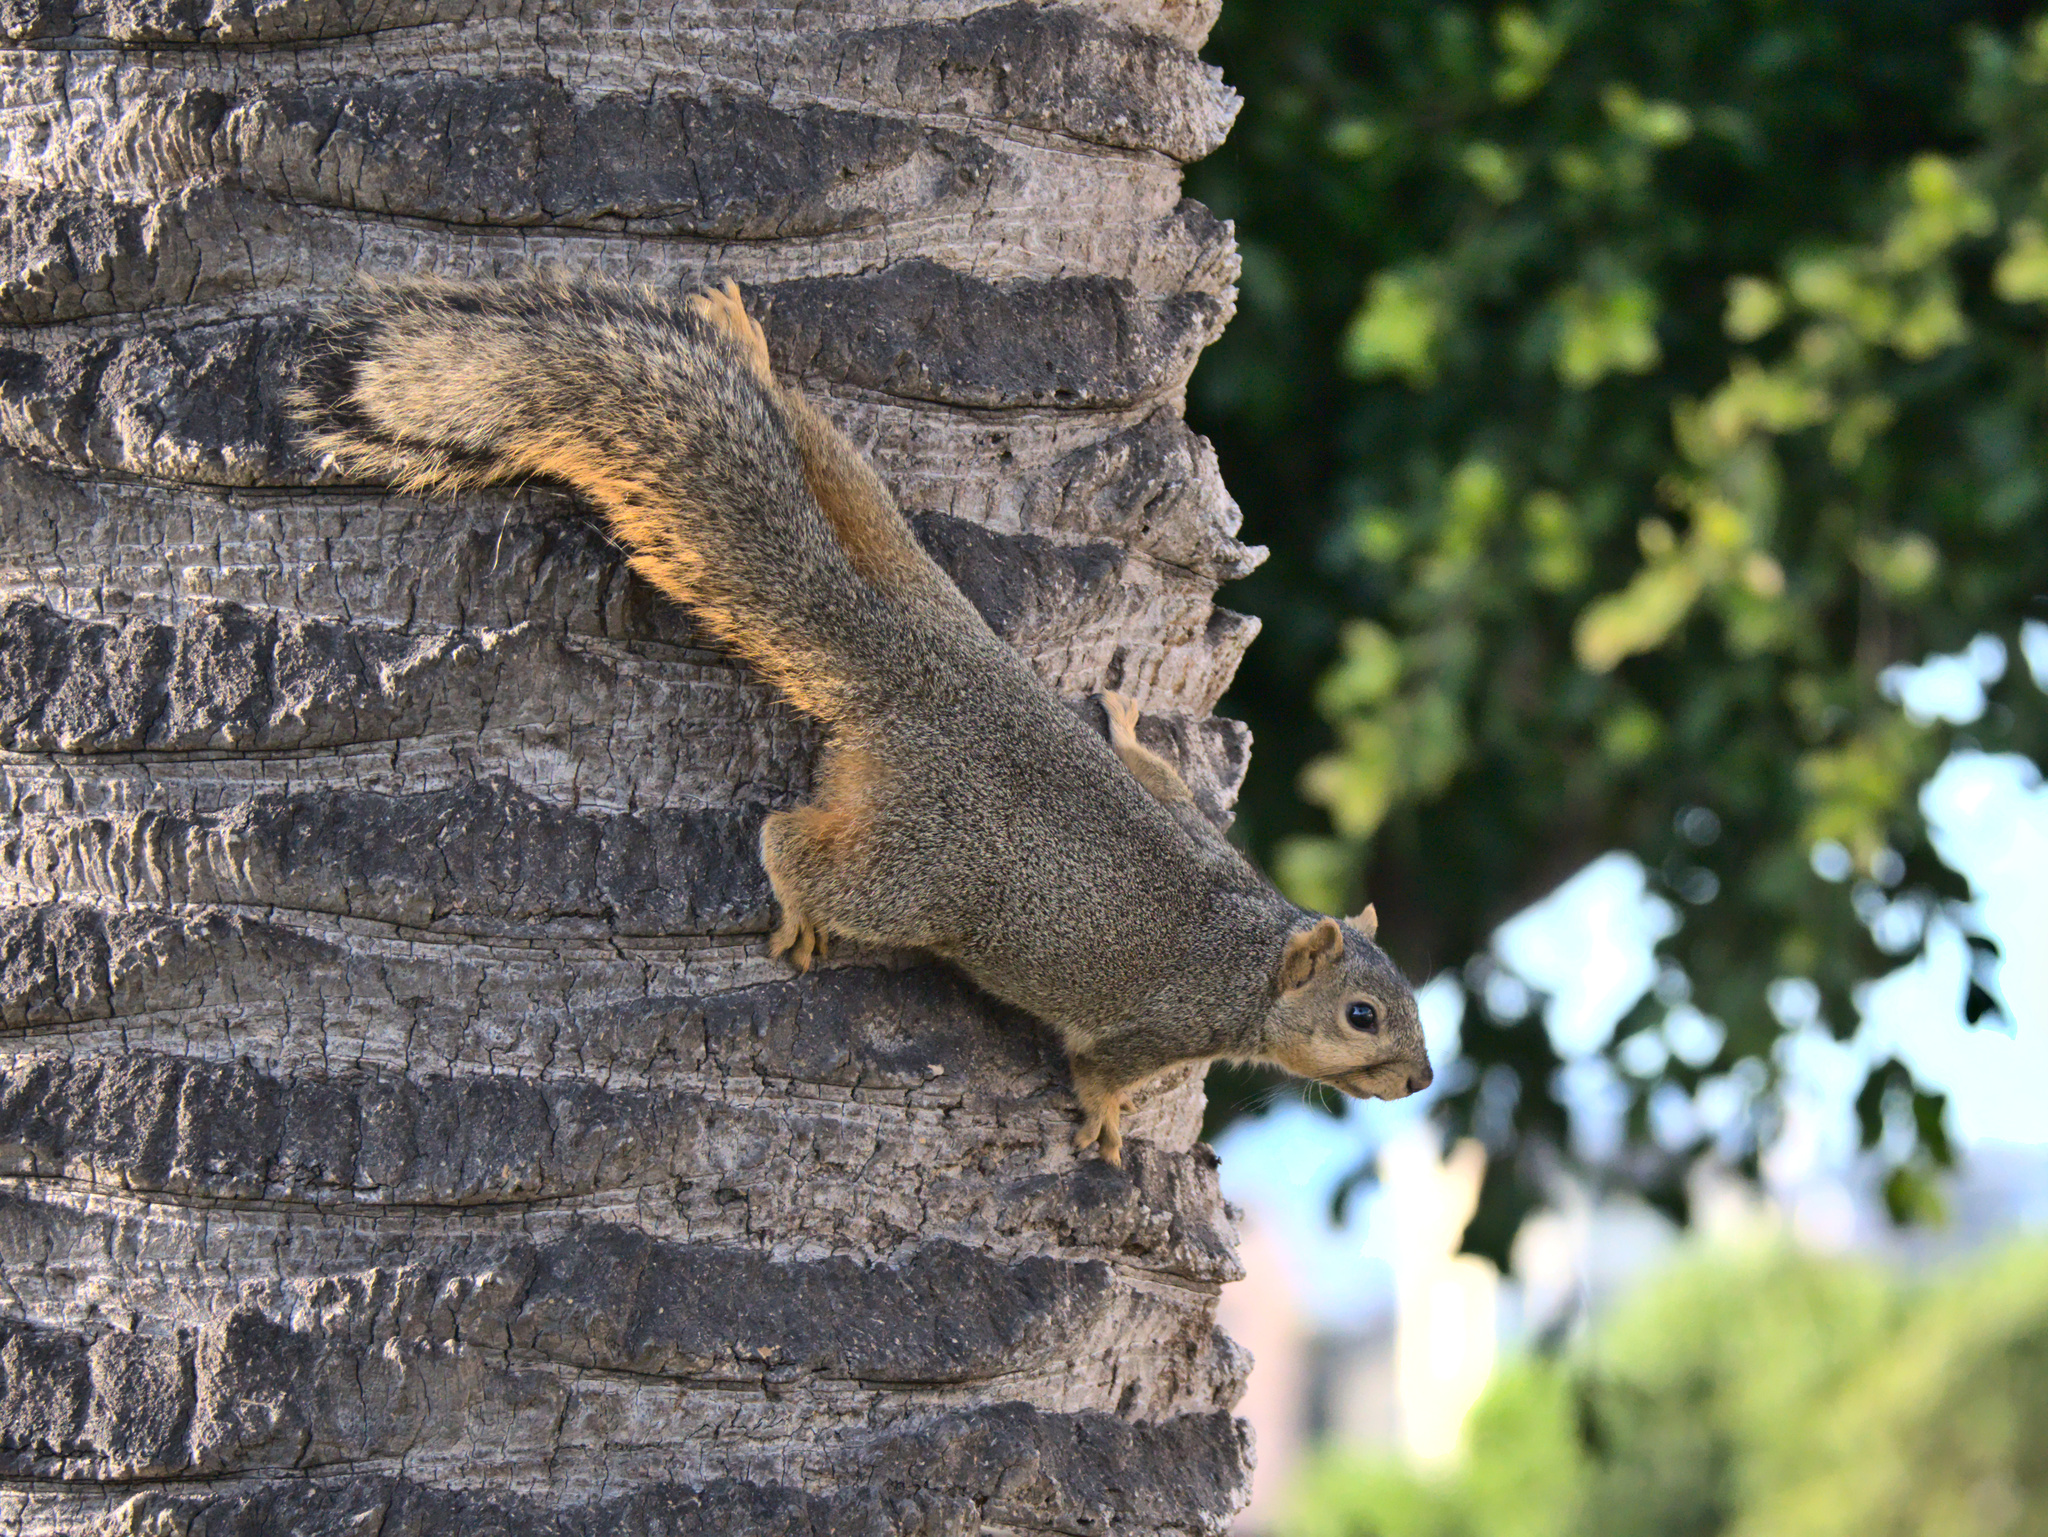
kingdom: Animalia
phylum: Chordata
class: Mammalia
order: Rodentia
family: Sciuridae
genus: Sciurus
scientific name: Sciurus niger
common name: Fox squirrel
